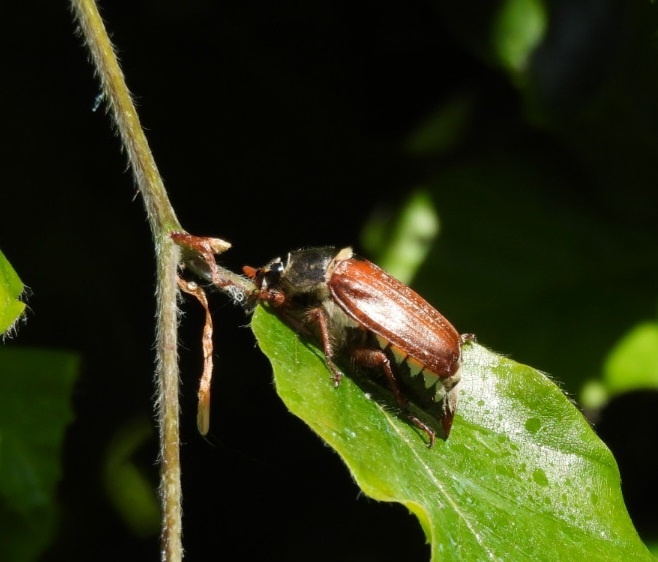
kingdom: Animalia
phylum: Arthropoda
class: Insecta
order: Coleoptera
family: Scarabaeidae
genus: Melolontha
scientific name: Melolontha melolontha
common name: Cockchafer maybeetle
